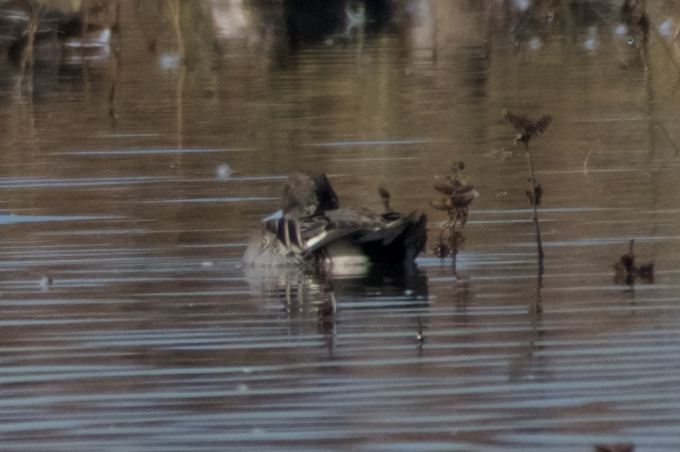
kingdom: Animalia
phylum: Chordata
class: Aves
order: Anseriformes
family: Anatidae
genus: Anas
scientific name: Anas acuta
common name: Northern pintail
